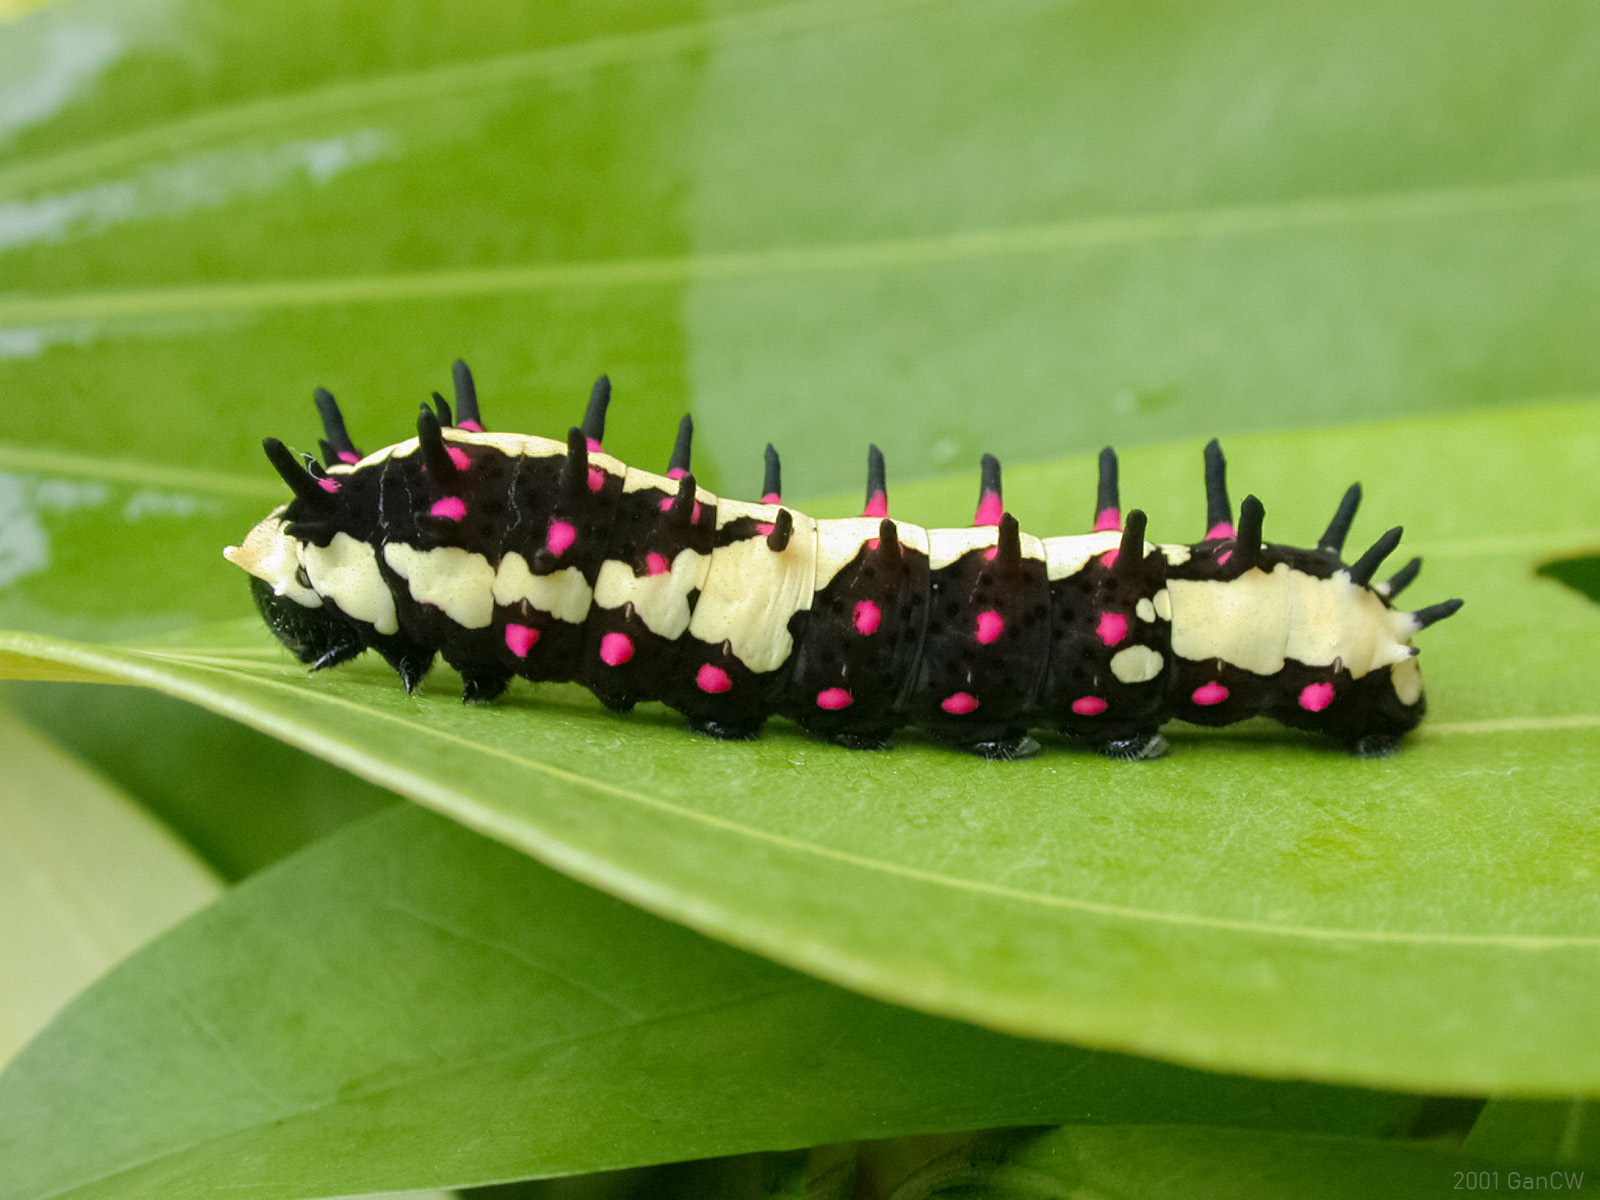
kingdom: Animalia
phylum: Arthropoda
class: Insecta
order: Lepidoptera
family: Papilionidae
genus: Chilasa
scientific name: Chilasa clytia
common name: Common mime
